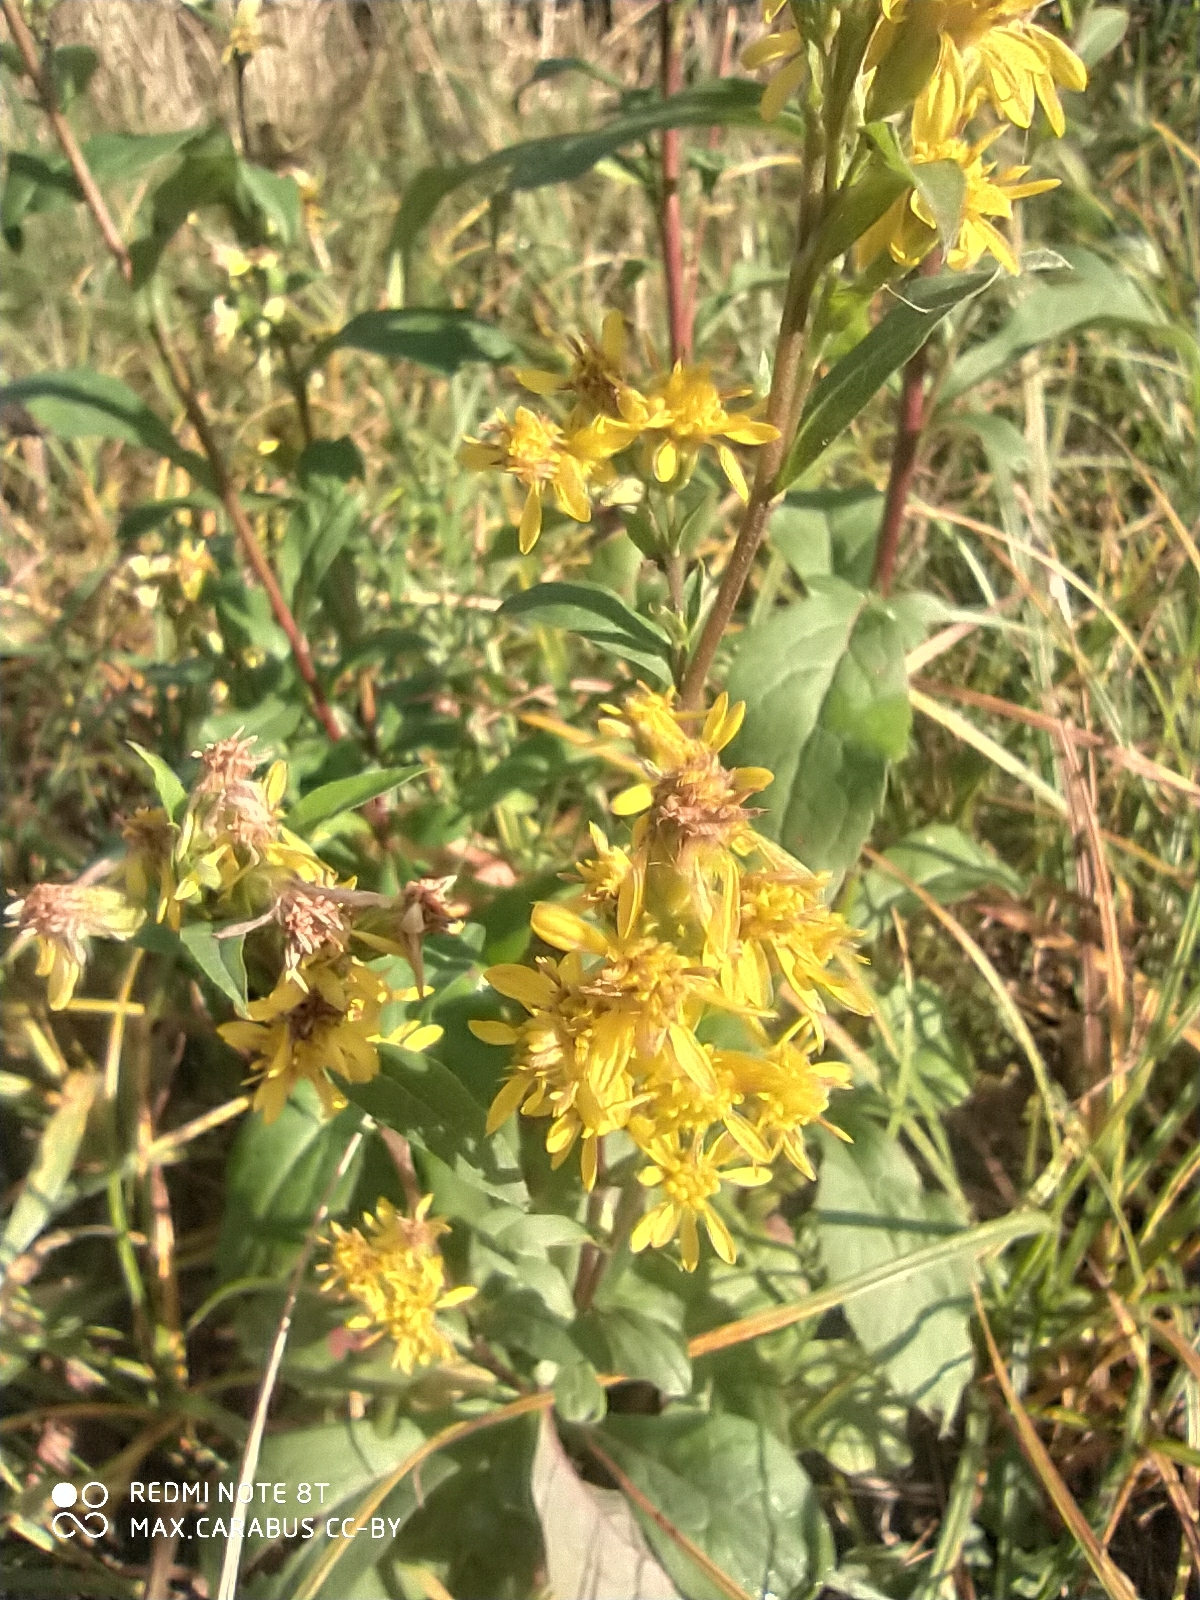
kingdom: Plantae
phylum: Tracheophyta
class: Magnoliopsida
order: Asterales
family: Asteraceae
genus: Solidago
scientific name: Solidago virgaurea
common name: Goldenrod
